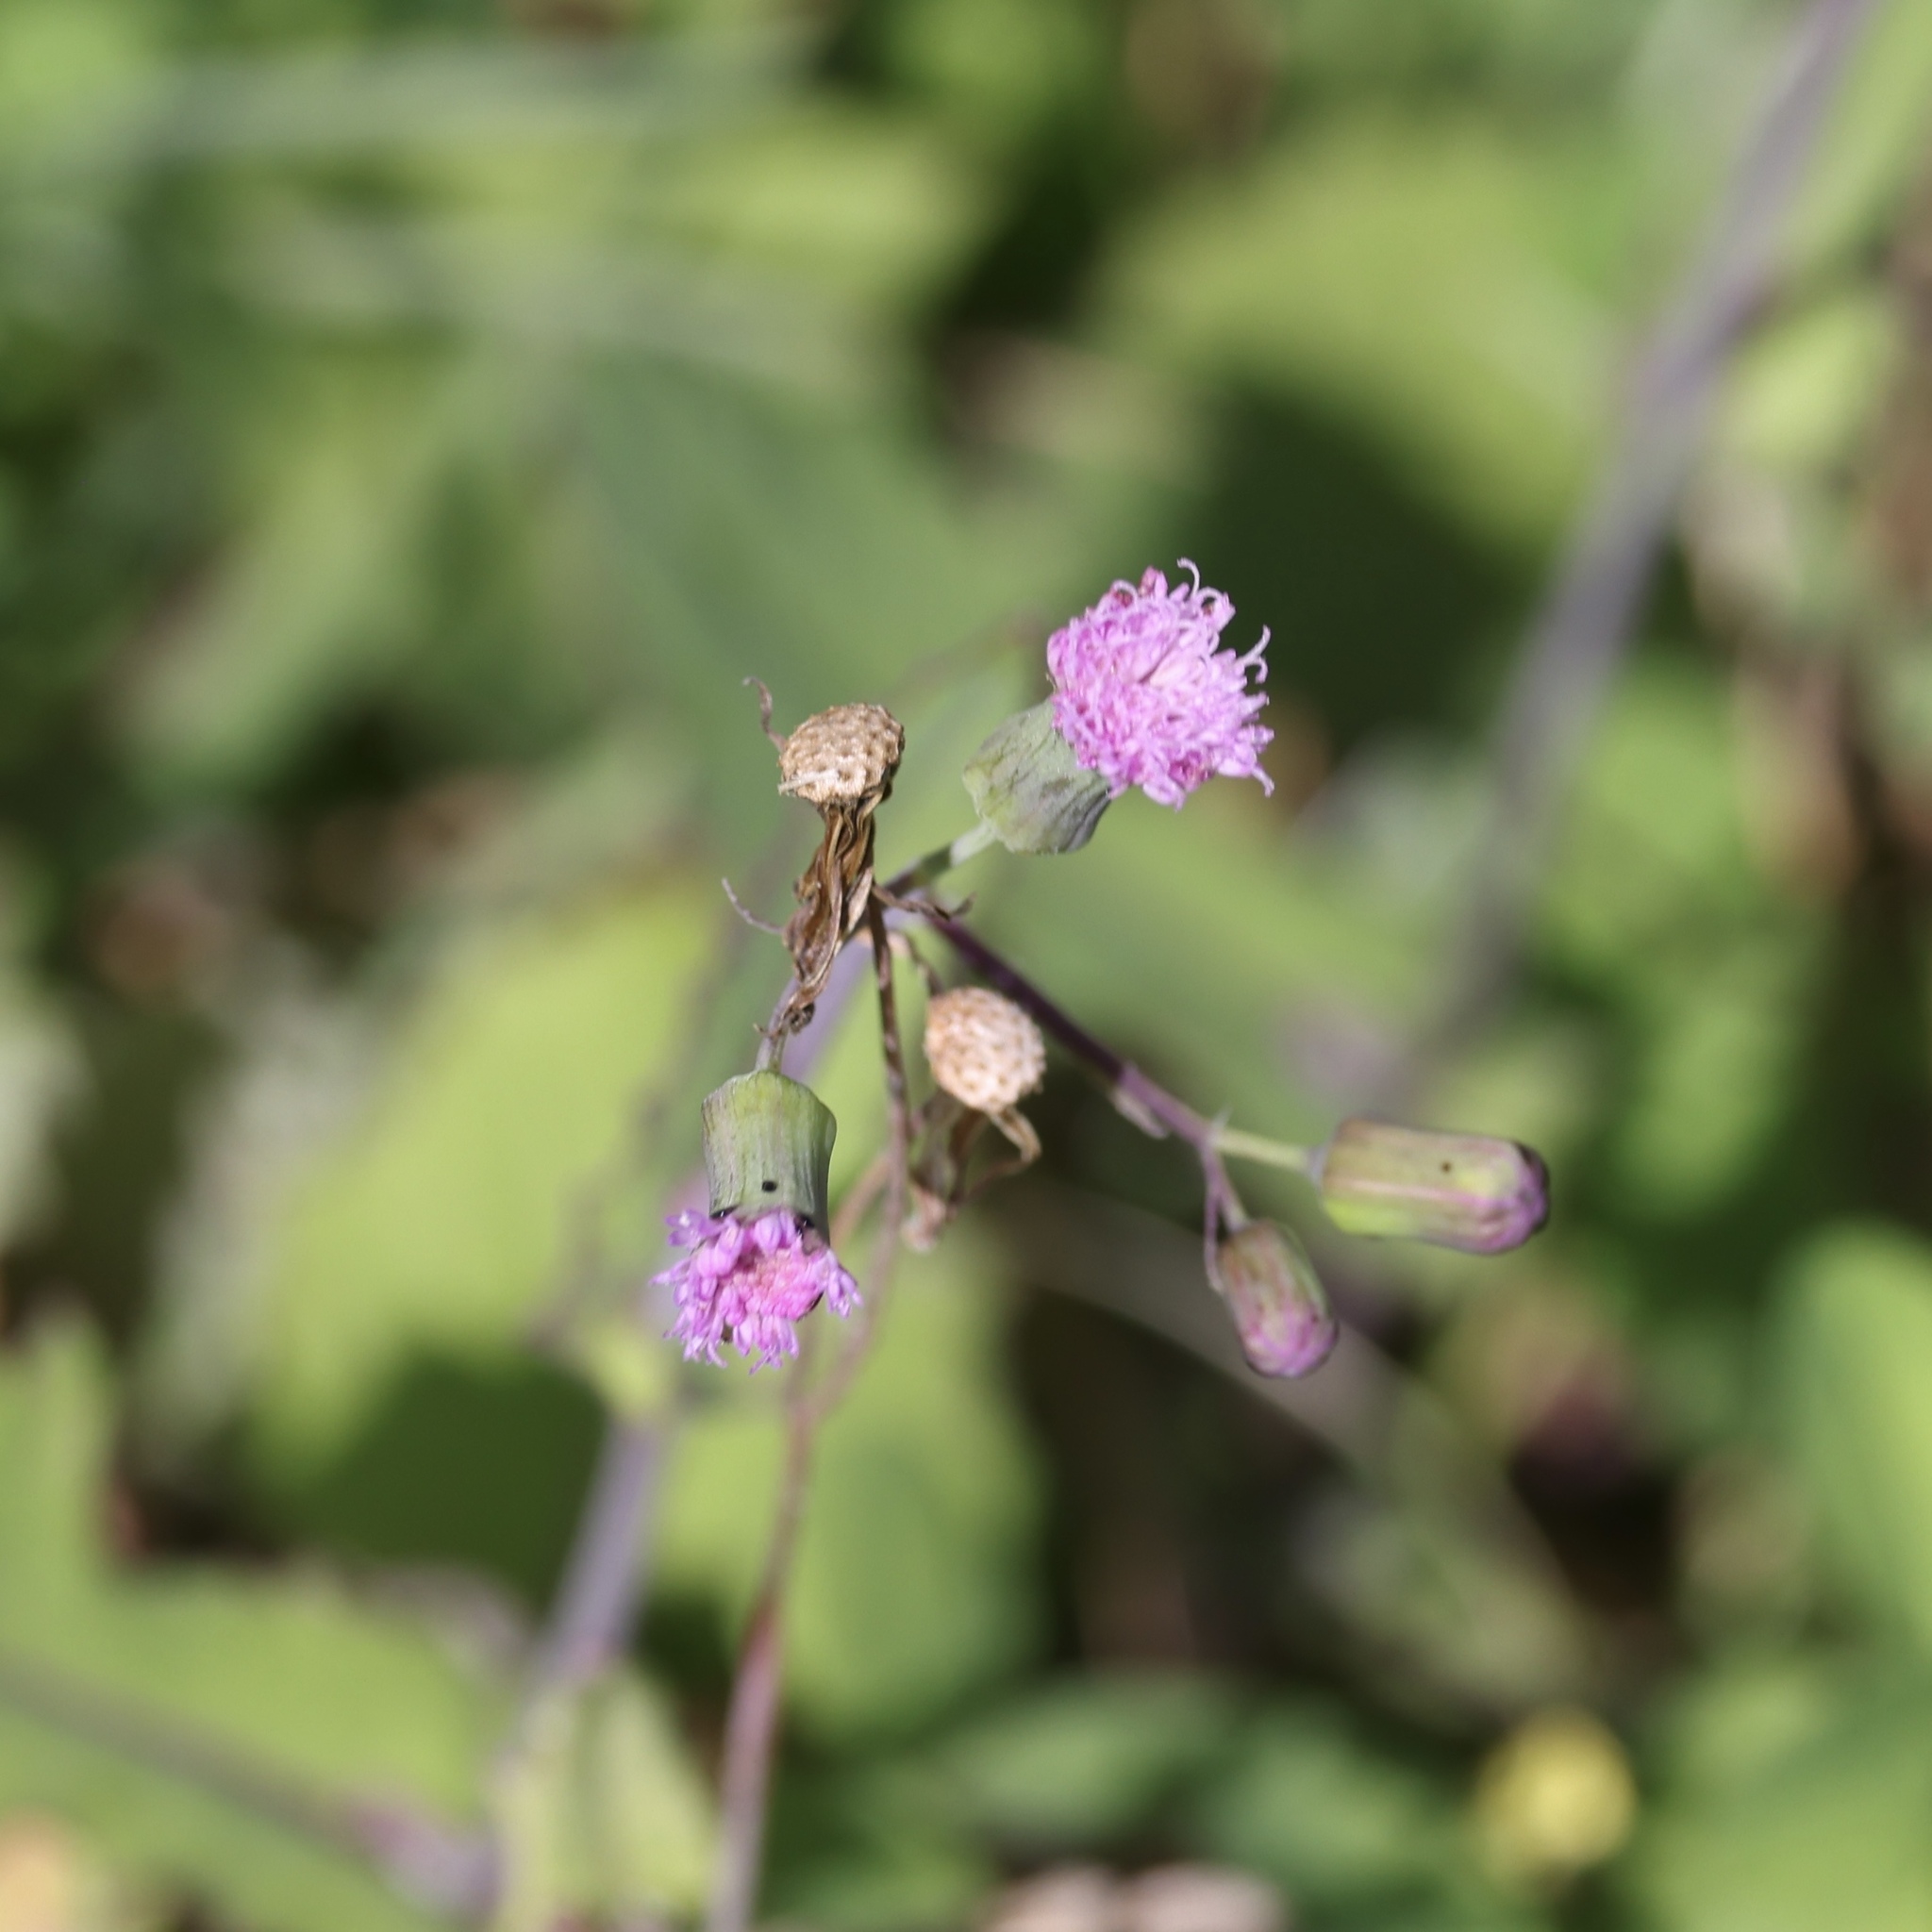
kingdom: Plantae
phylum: Tracheophyta
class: Magnoliopsida
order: Asterales
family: Asteraceae
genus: Emilia
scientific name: Emilia sonchifolia
